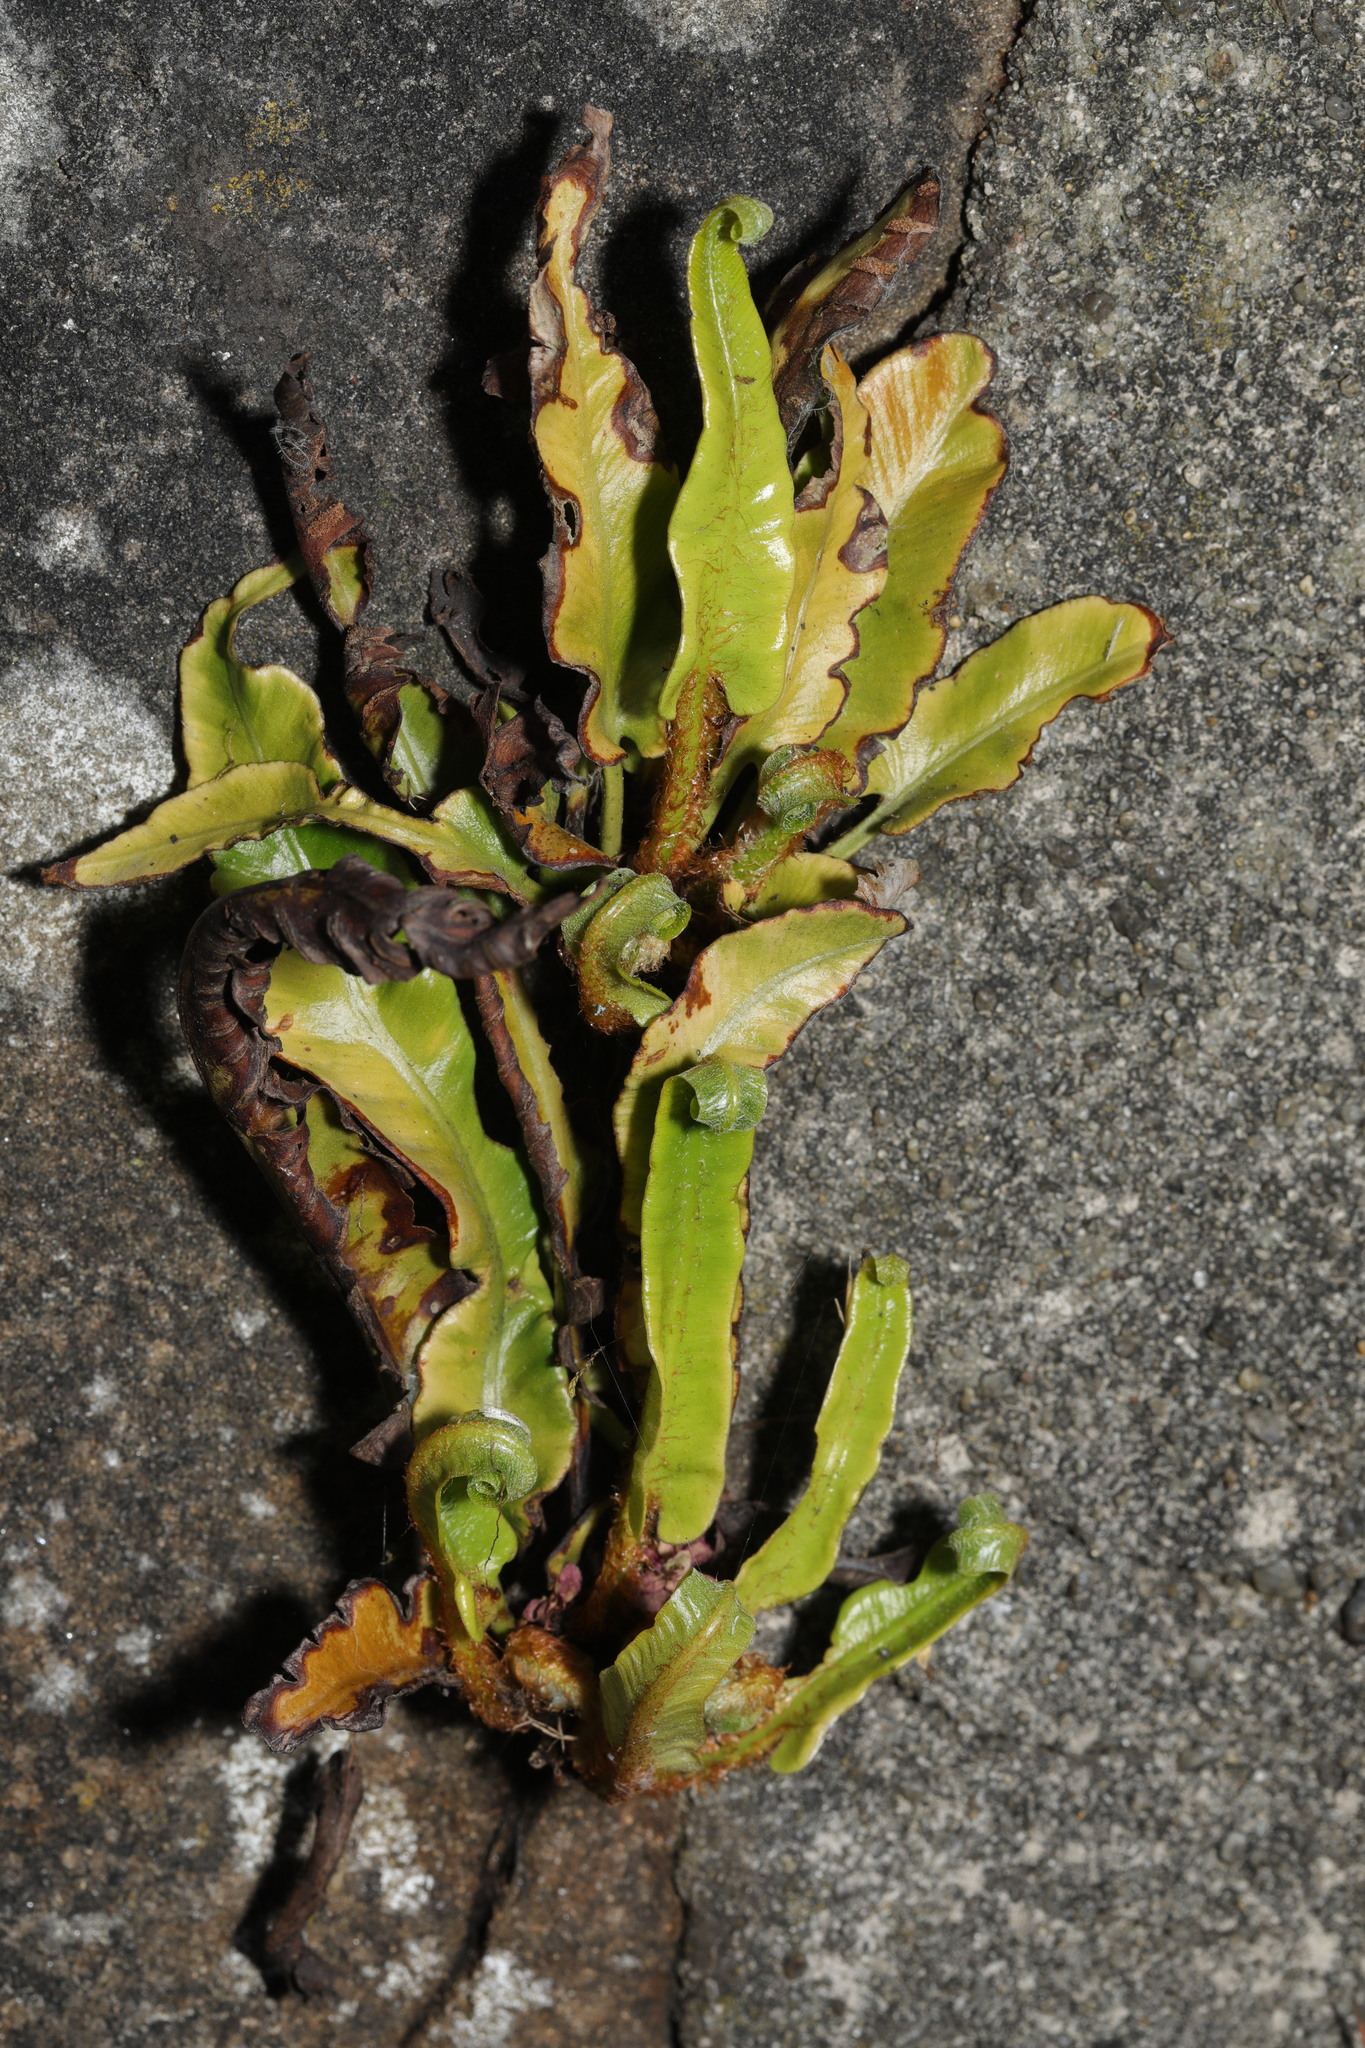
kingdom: Plantae
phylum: Tracheophyta
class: Polypodiopsida
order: Polypodiales
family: Aspleniaceae
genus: Asplenium
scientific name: Asplenium scolopendrium
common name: Hart's-tongue fern
